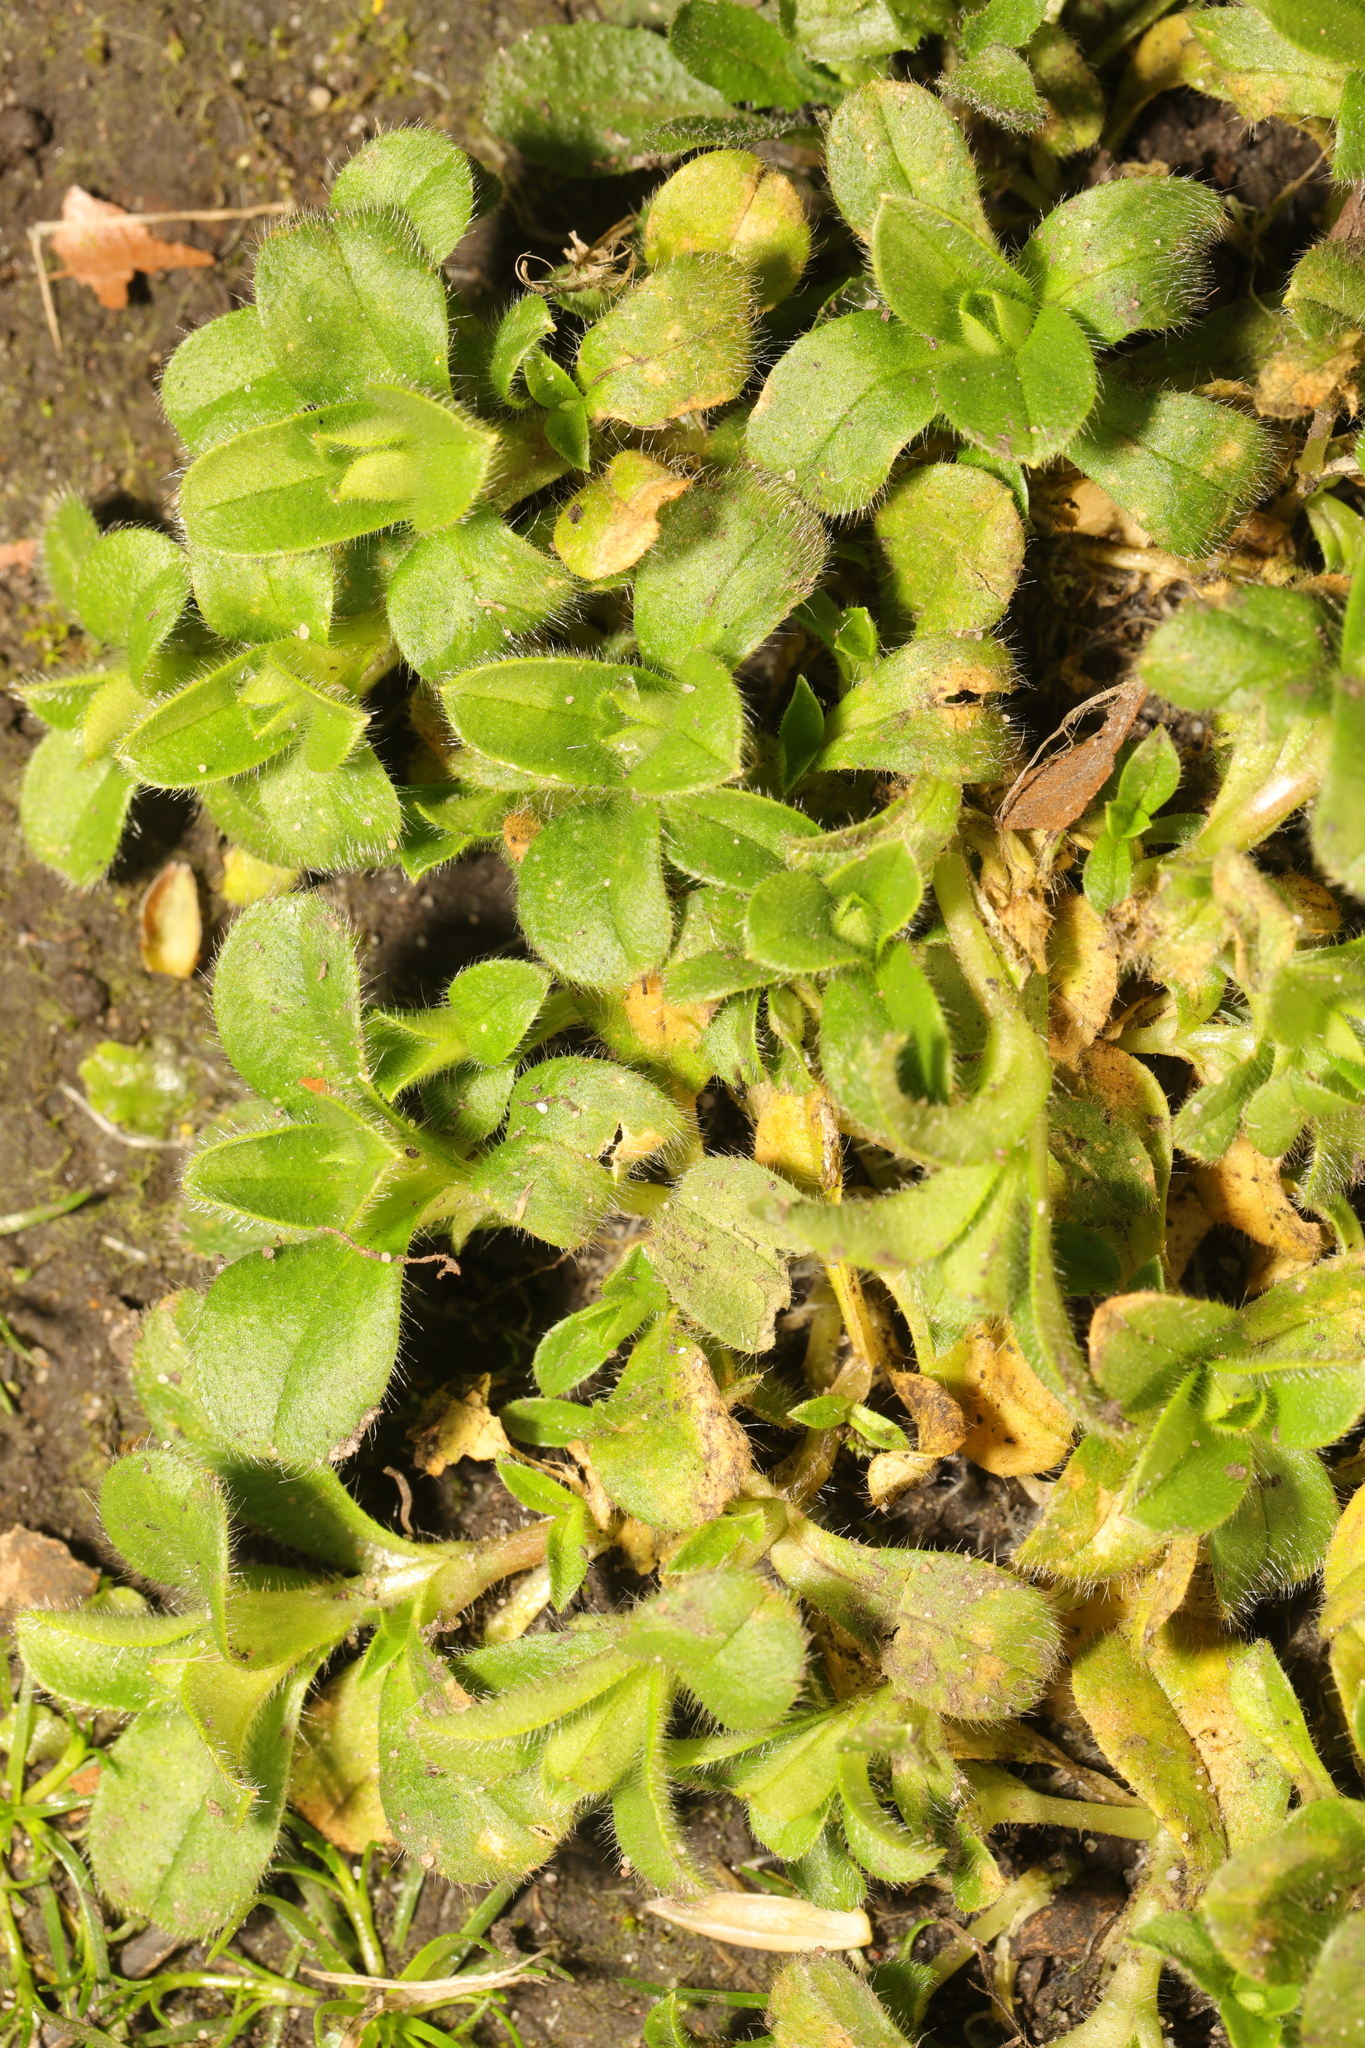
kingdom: Plantae
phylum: Tracheophyta
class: Magnoliopsida
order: Caryophyllales
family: Caryophyllaceae
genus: Cerastium
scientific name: Cerastium glomeratum
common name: Sticky chickweed
